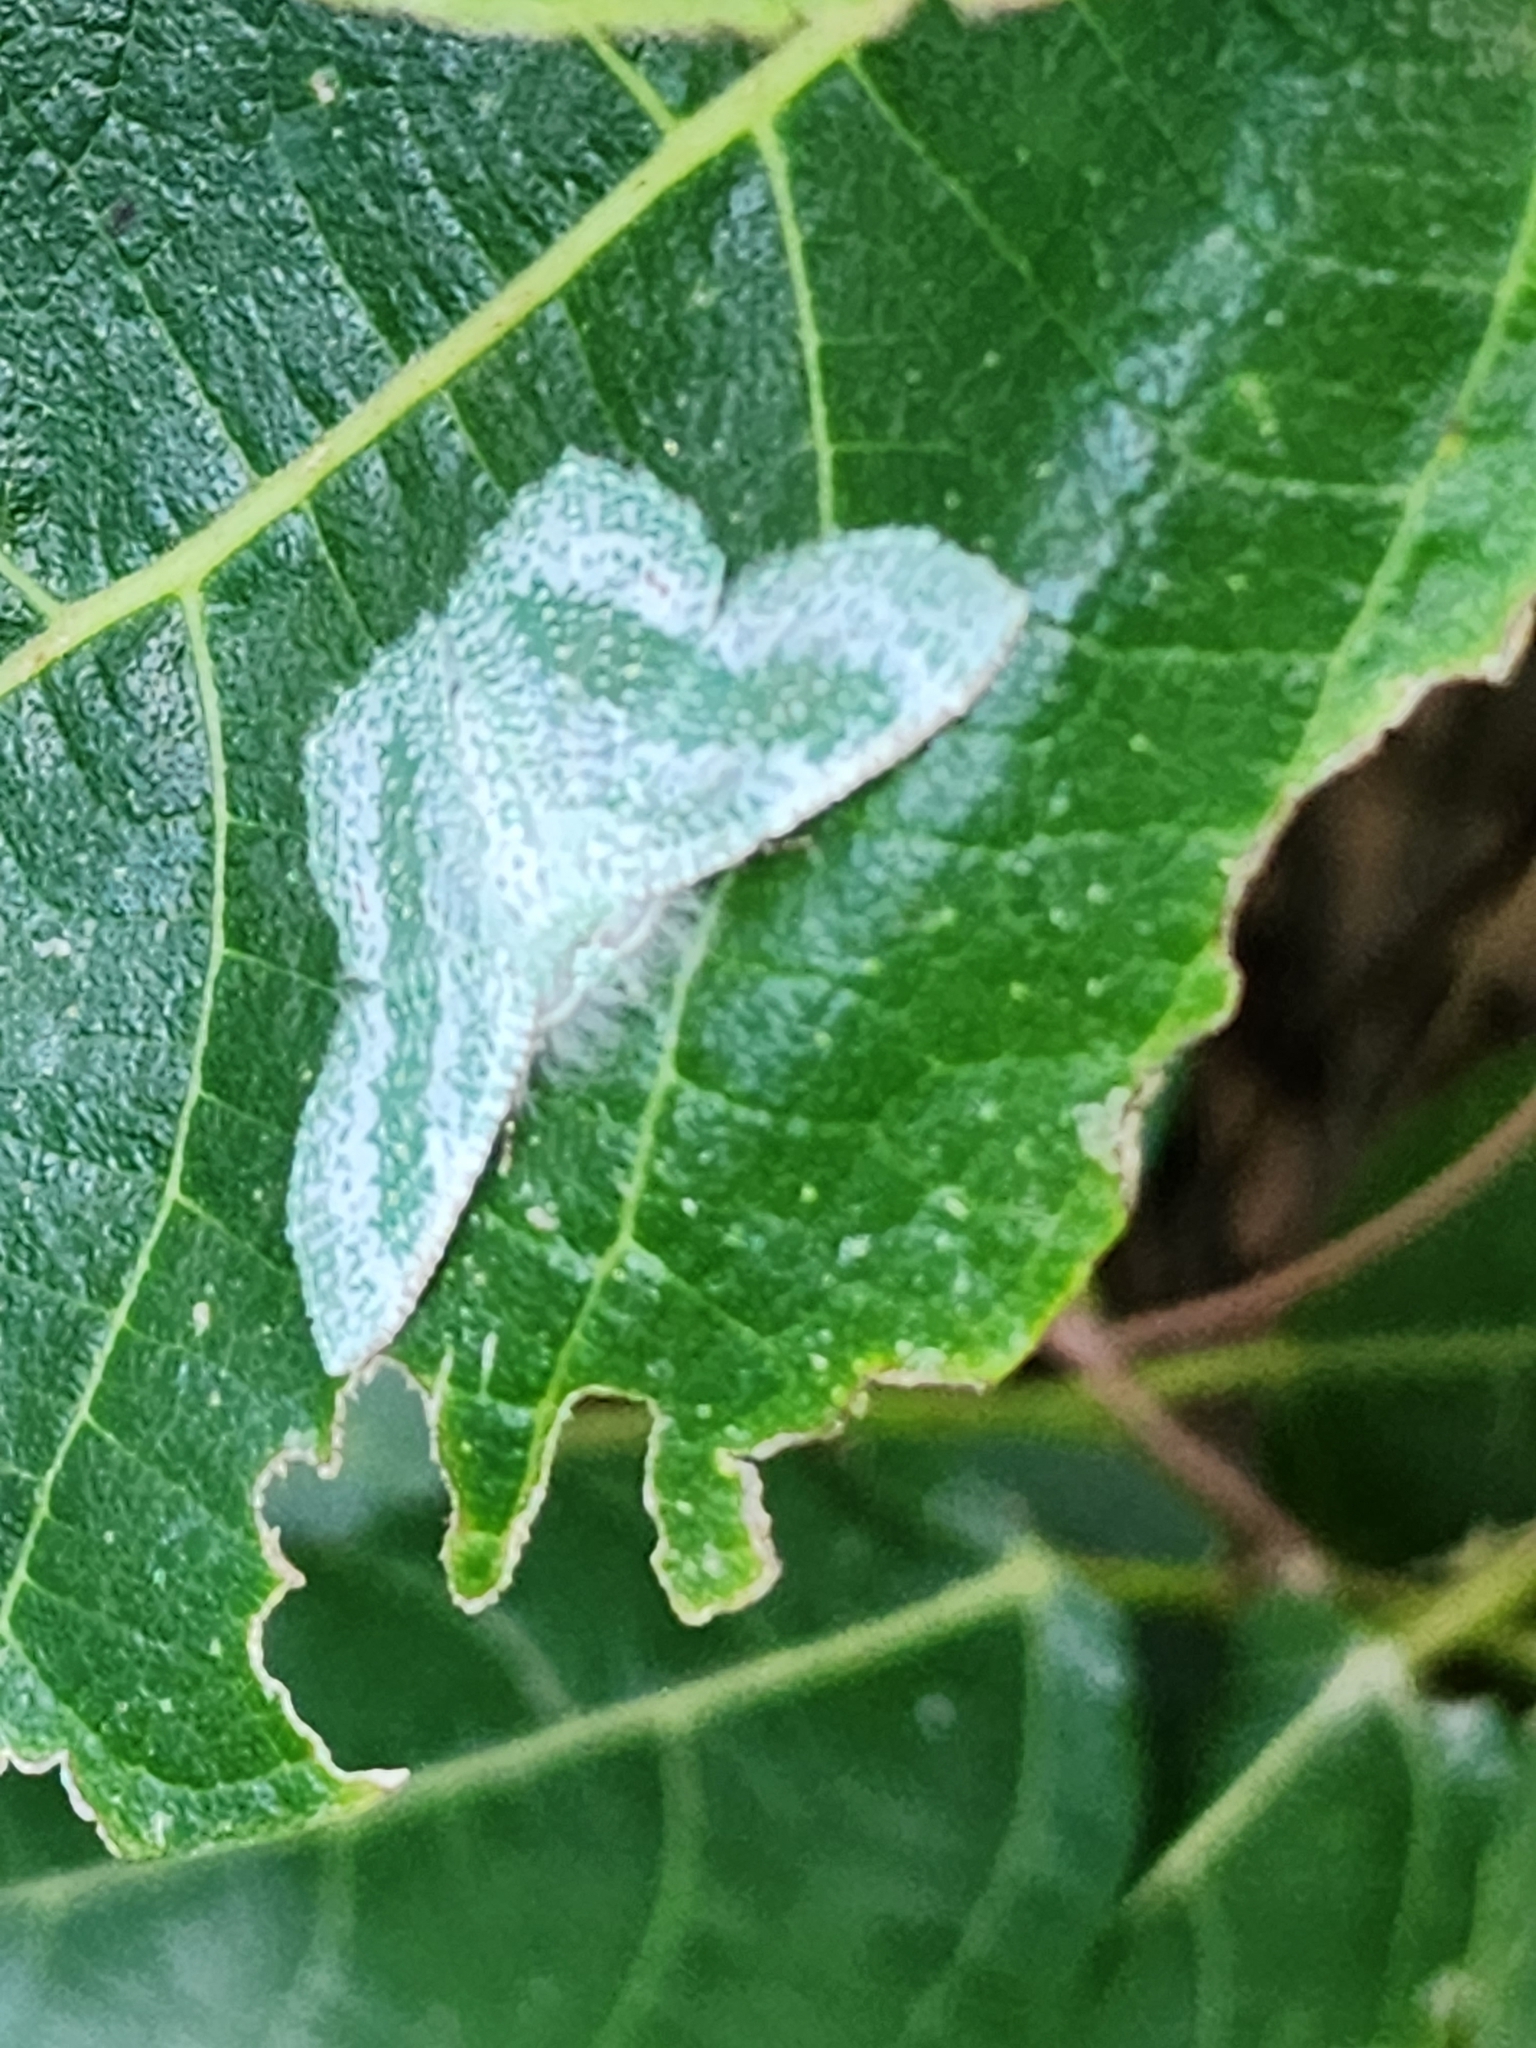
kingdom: Animalia
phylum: Arthropoda
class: Insecta
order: Lepidoptera
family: Geometridae
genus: Eucyclodes
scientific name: Eucyclodes pieroides
